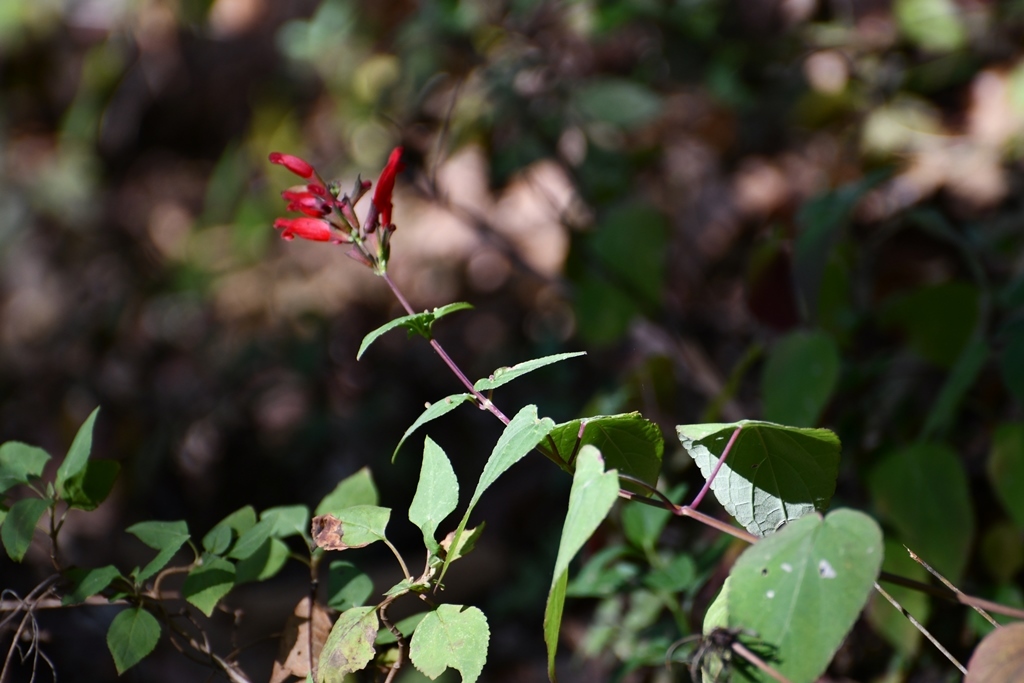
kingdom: Plantae
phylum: Tracheophyta
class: Magnoliopsida
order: Lamiales
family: Lamiaceae
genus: Salvia
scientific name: Salvia holwayi
